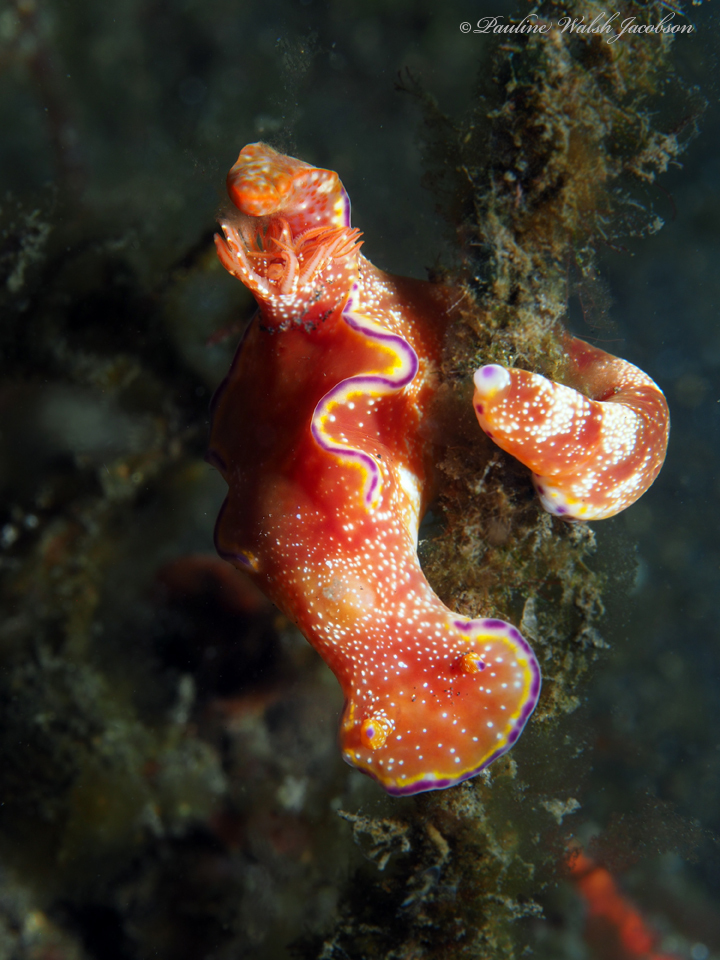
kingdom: Animalia
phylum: Mollusca
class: Gastropoda
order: Nudibranchia
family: Chromodorididae
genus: Ceratosoma
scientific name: Ceratosoma tenue
